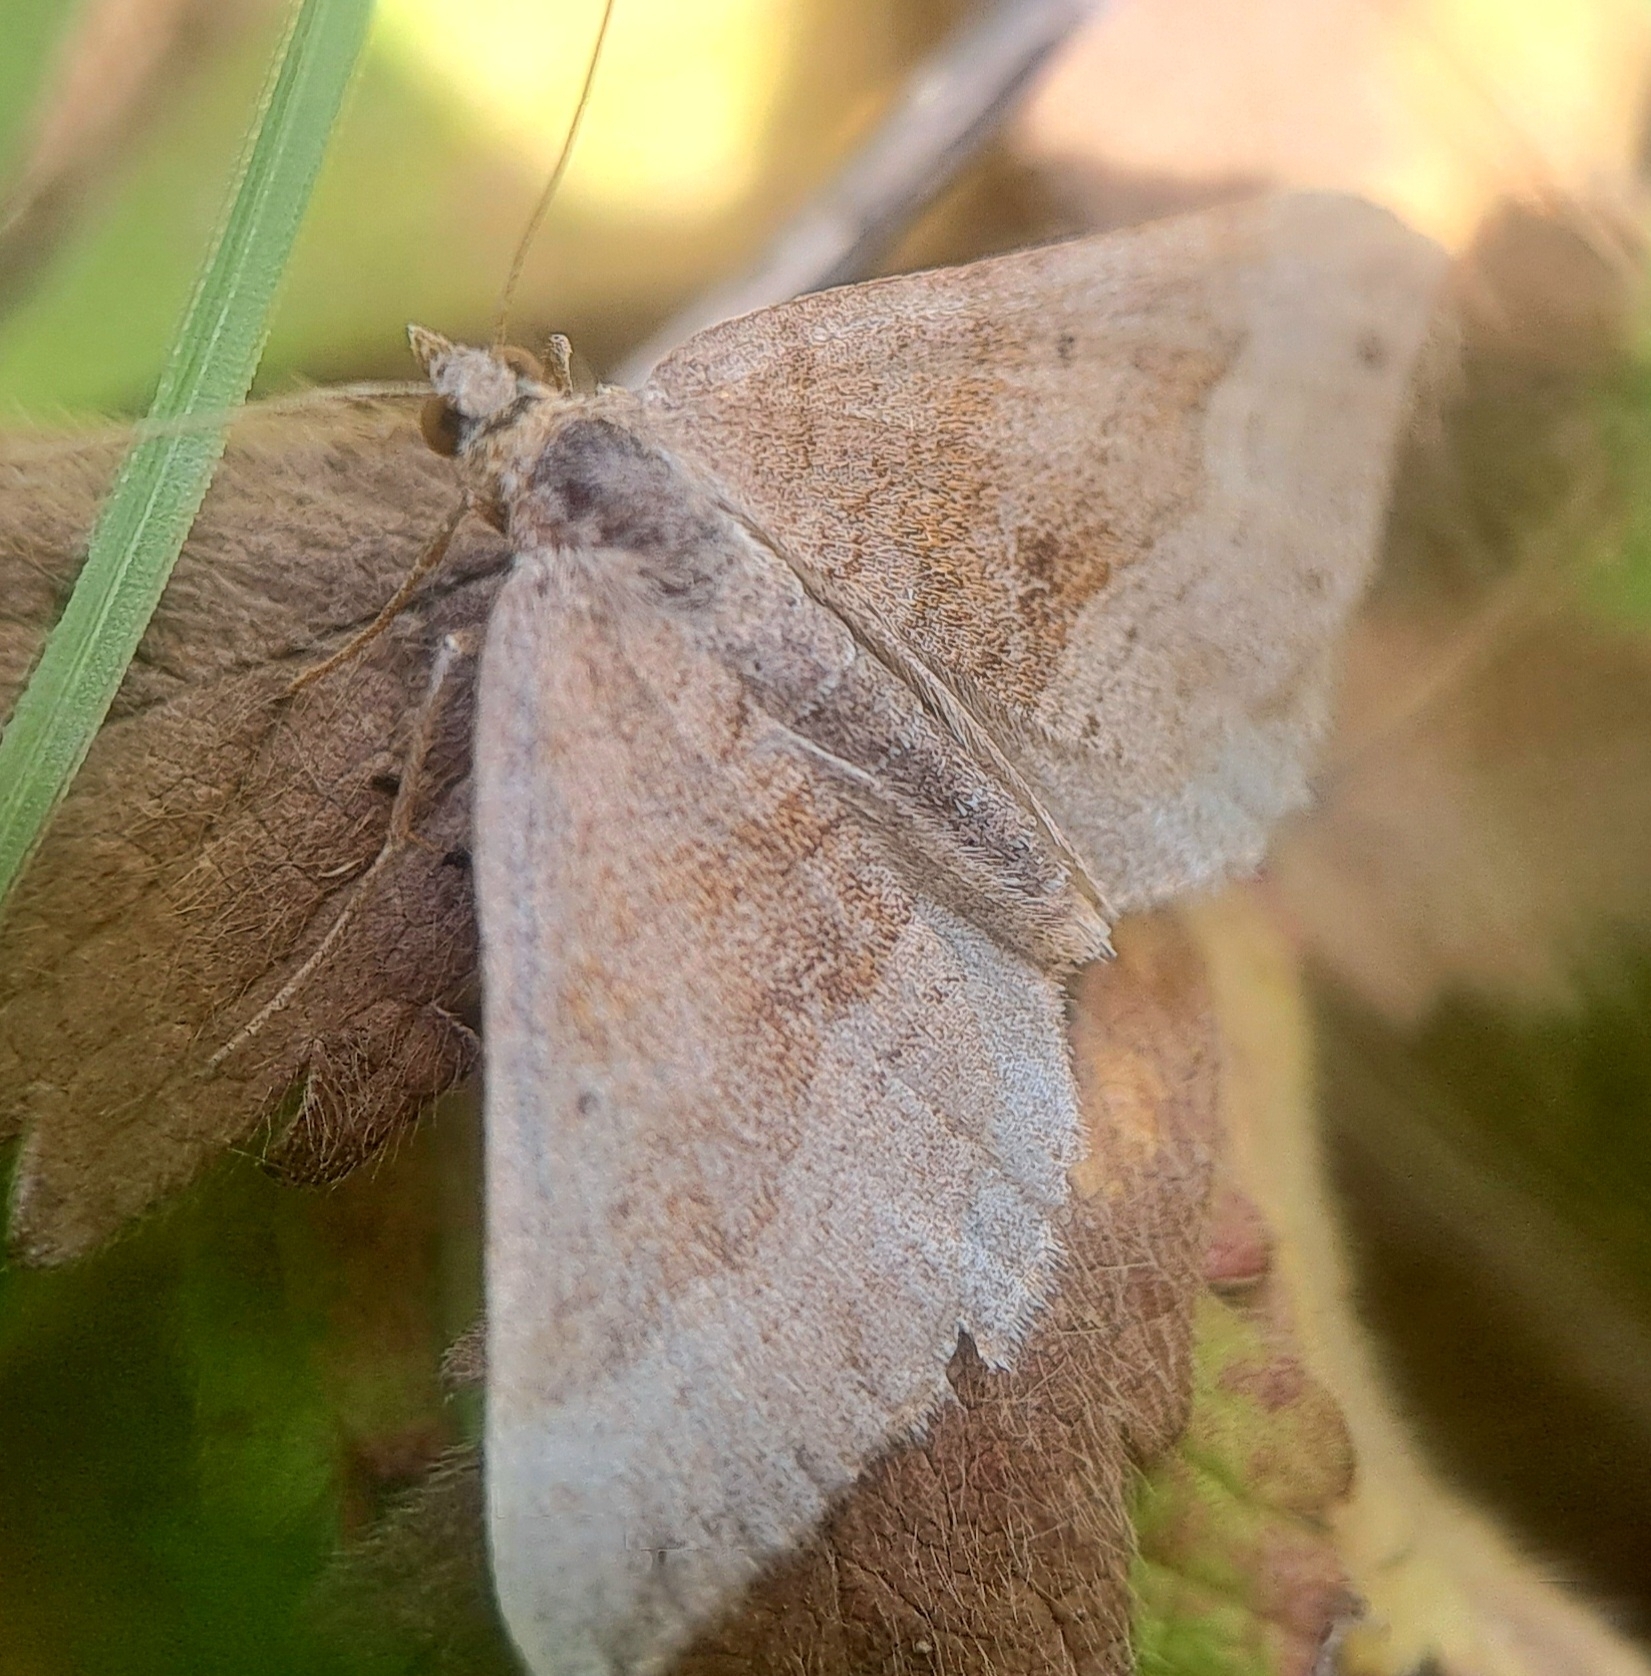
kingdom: Animalia
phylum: Arthropoda
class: Insecta
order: Lepidoptera
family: Geometridae
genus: Scotopteryx
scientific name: Scotopteryx chenopodiata
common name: Shaded broad-bar
